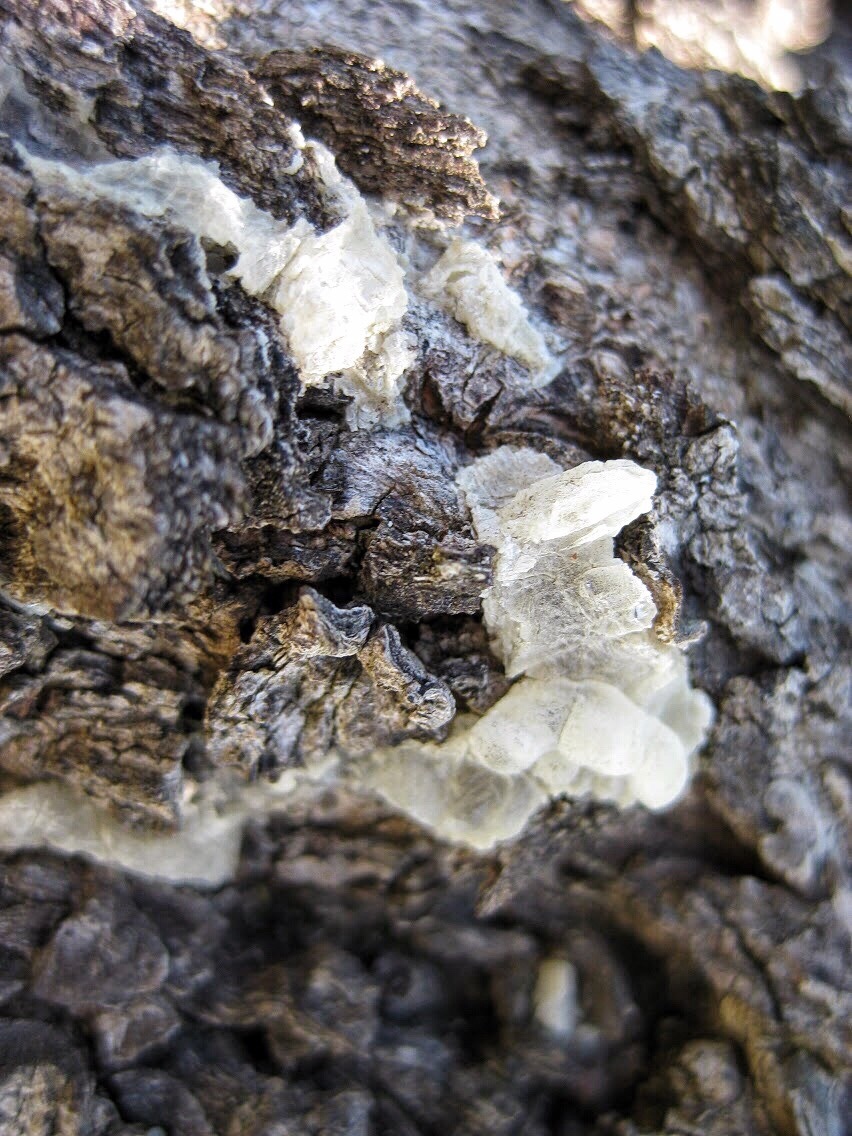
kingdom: Plantae
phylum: Tracheophyta
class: Magnoliopsida
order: Sapindales
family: Anacardiaceae
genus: Pistacia
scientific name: Pistacia lentiscus
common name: Lentisk
